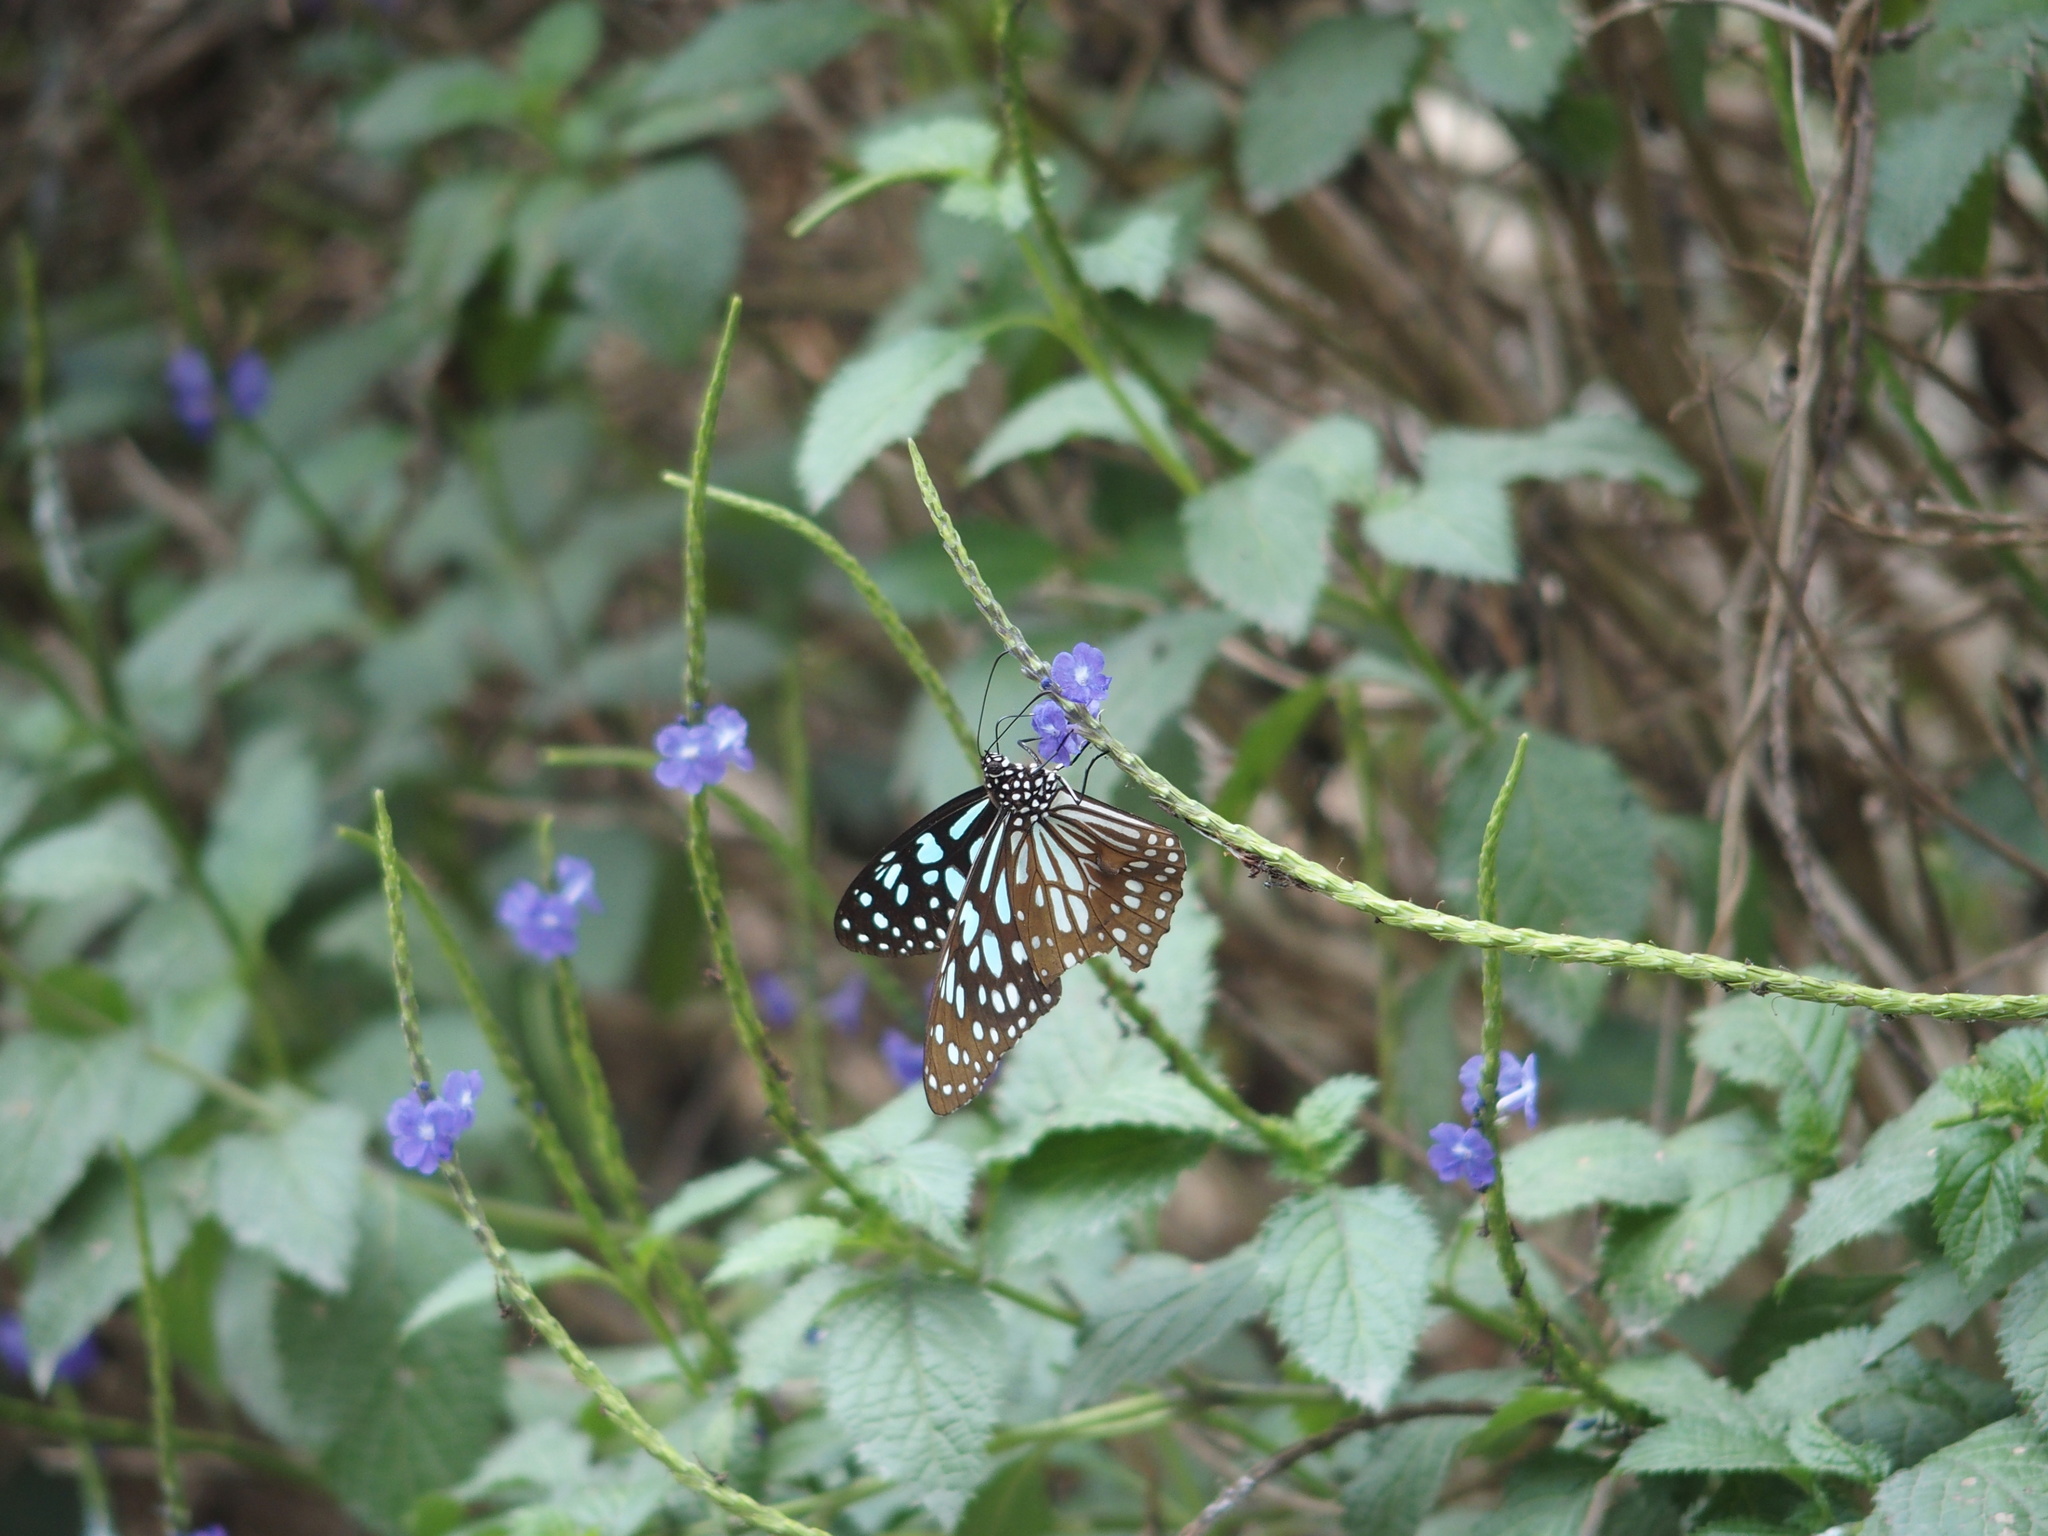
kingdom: Animalia
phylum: Arthropoda
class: Insecta
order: Lepidoptera
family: Nymphalidae
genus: Tirumala
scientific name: Tirumala limniace
